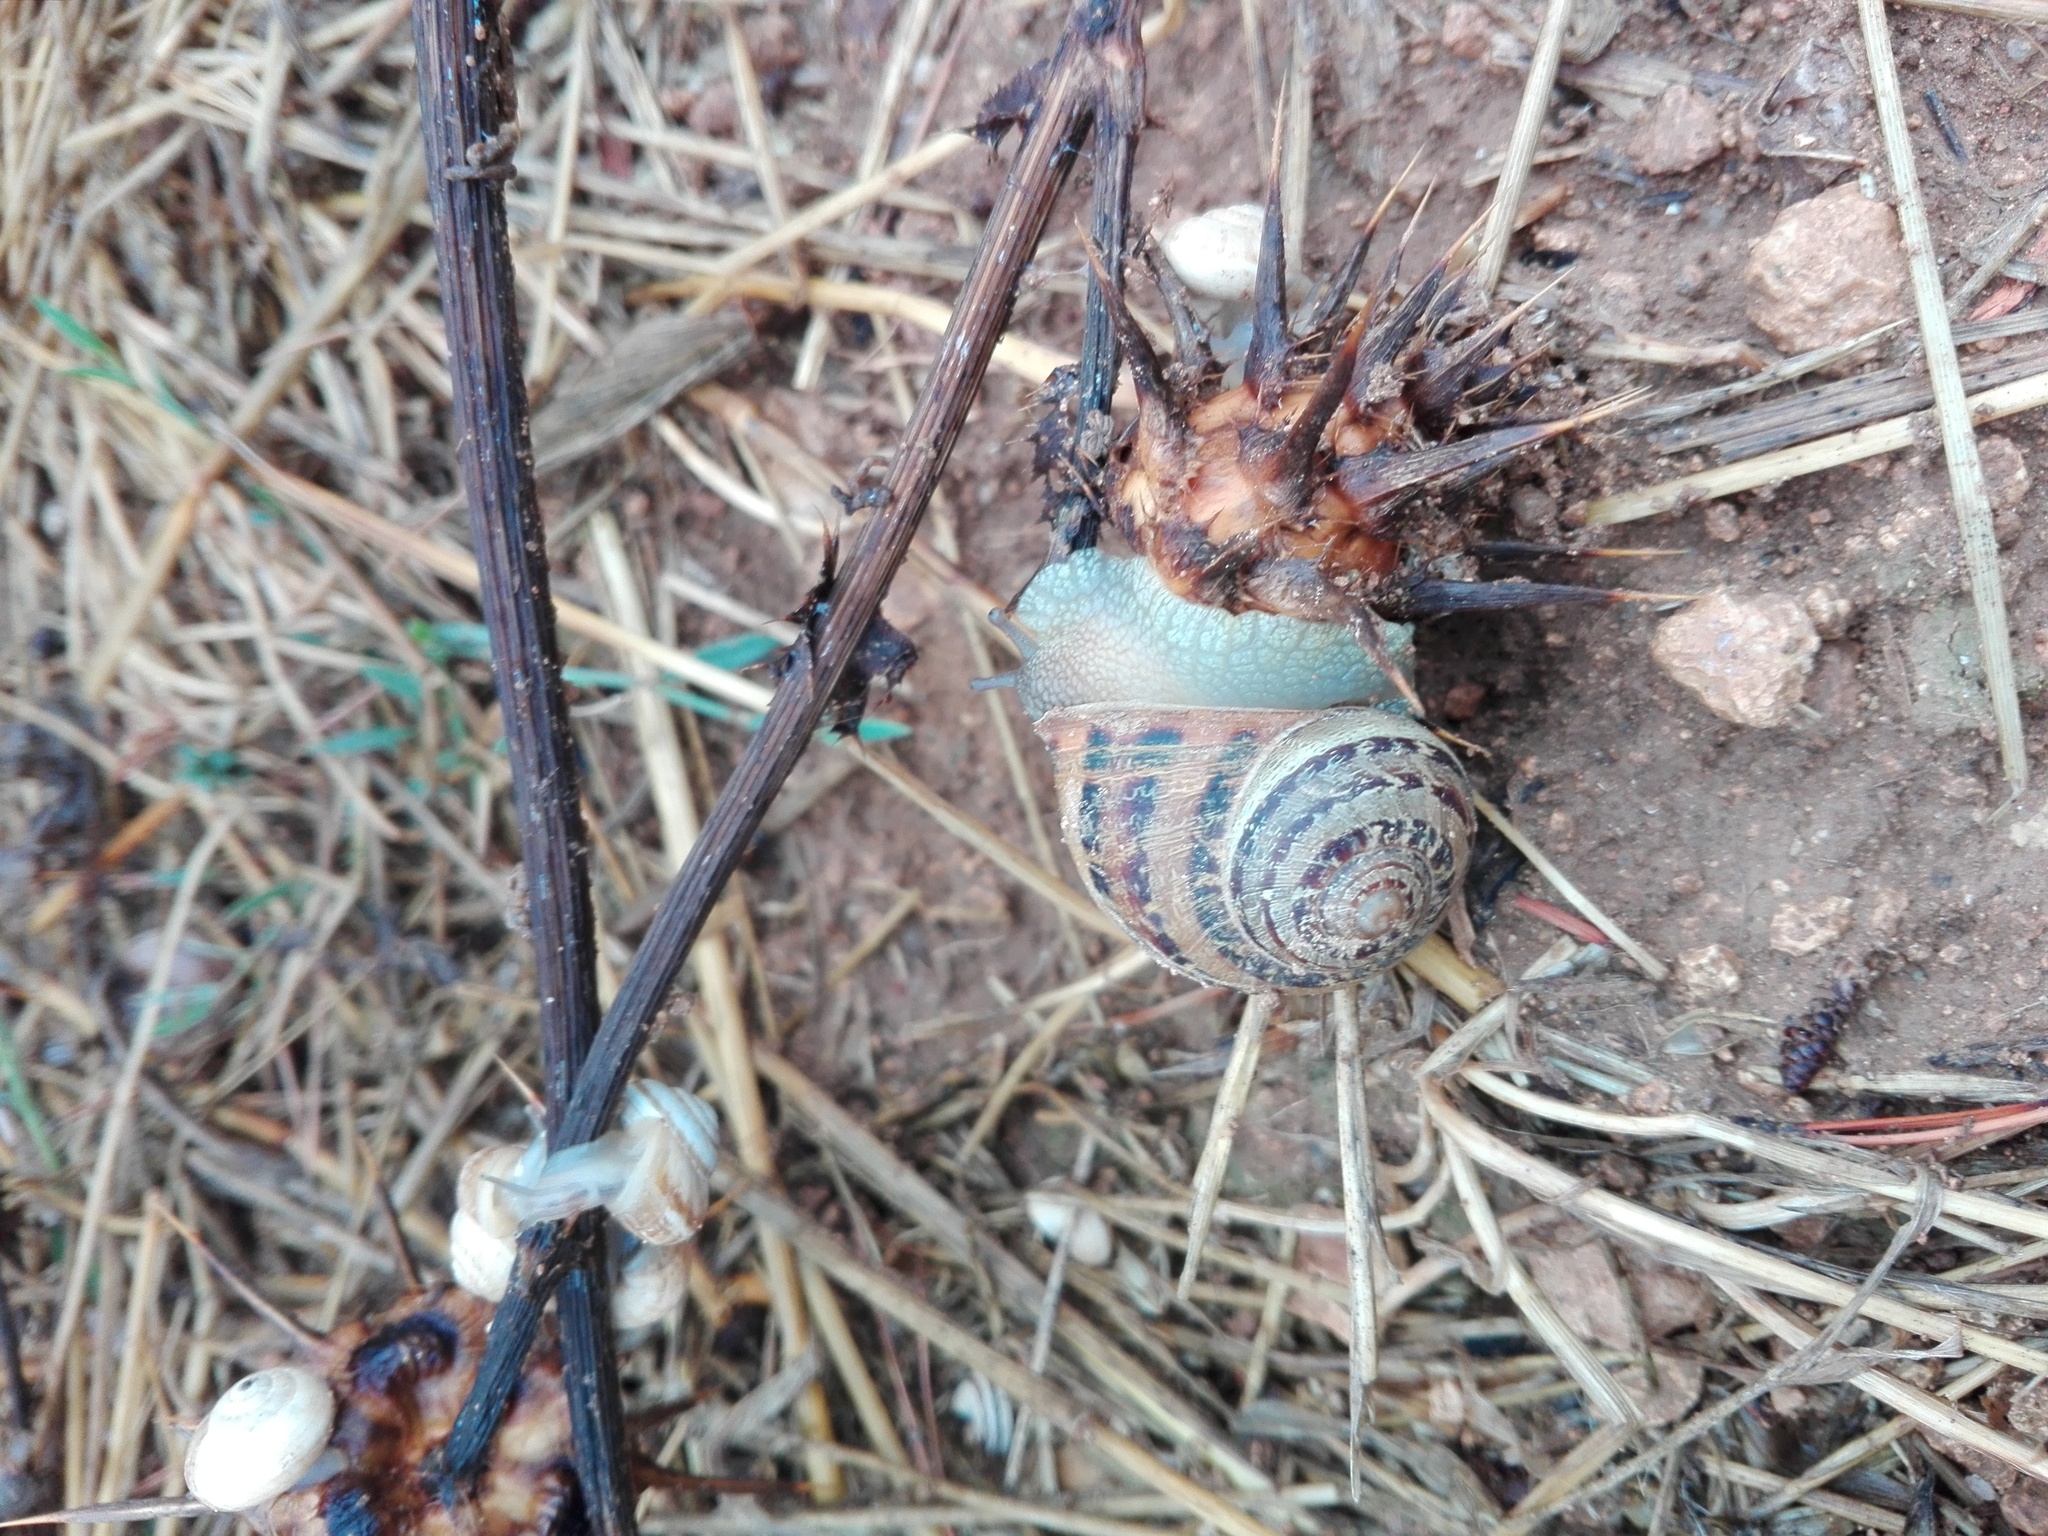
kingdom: Animalia
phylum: Mollusca
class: Gastropoda
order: Stylommatophora
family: Helicidae
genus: Cornu
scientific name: Cornu aspersum
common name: Brown garden snail
